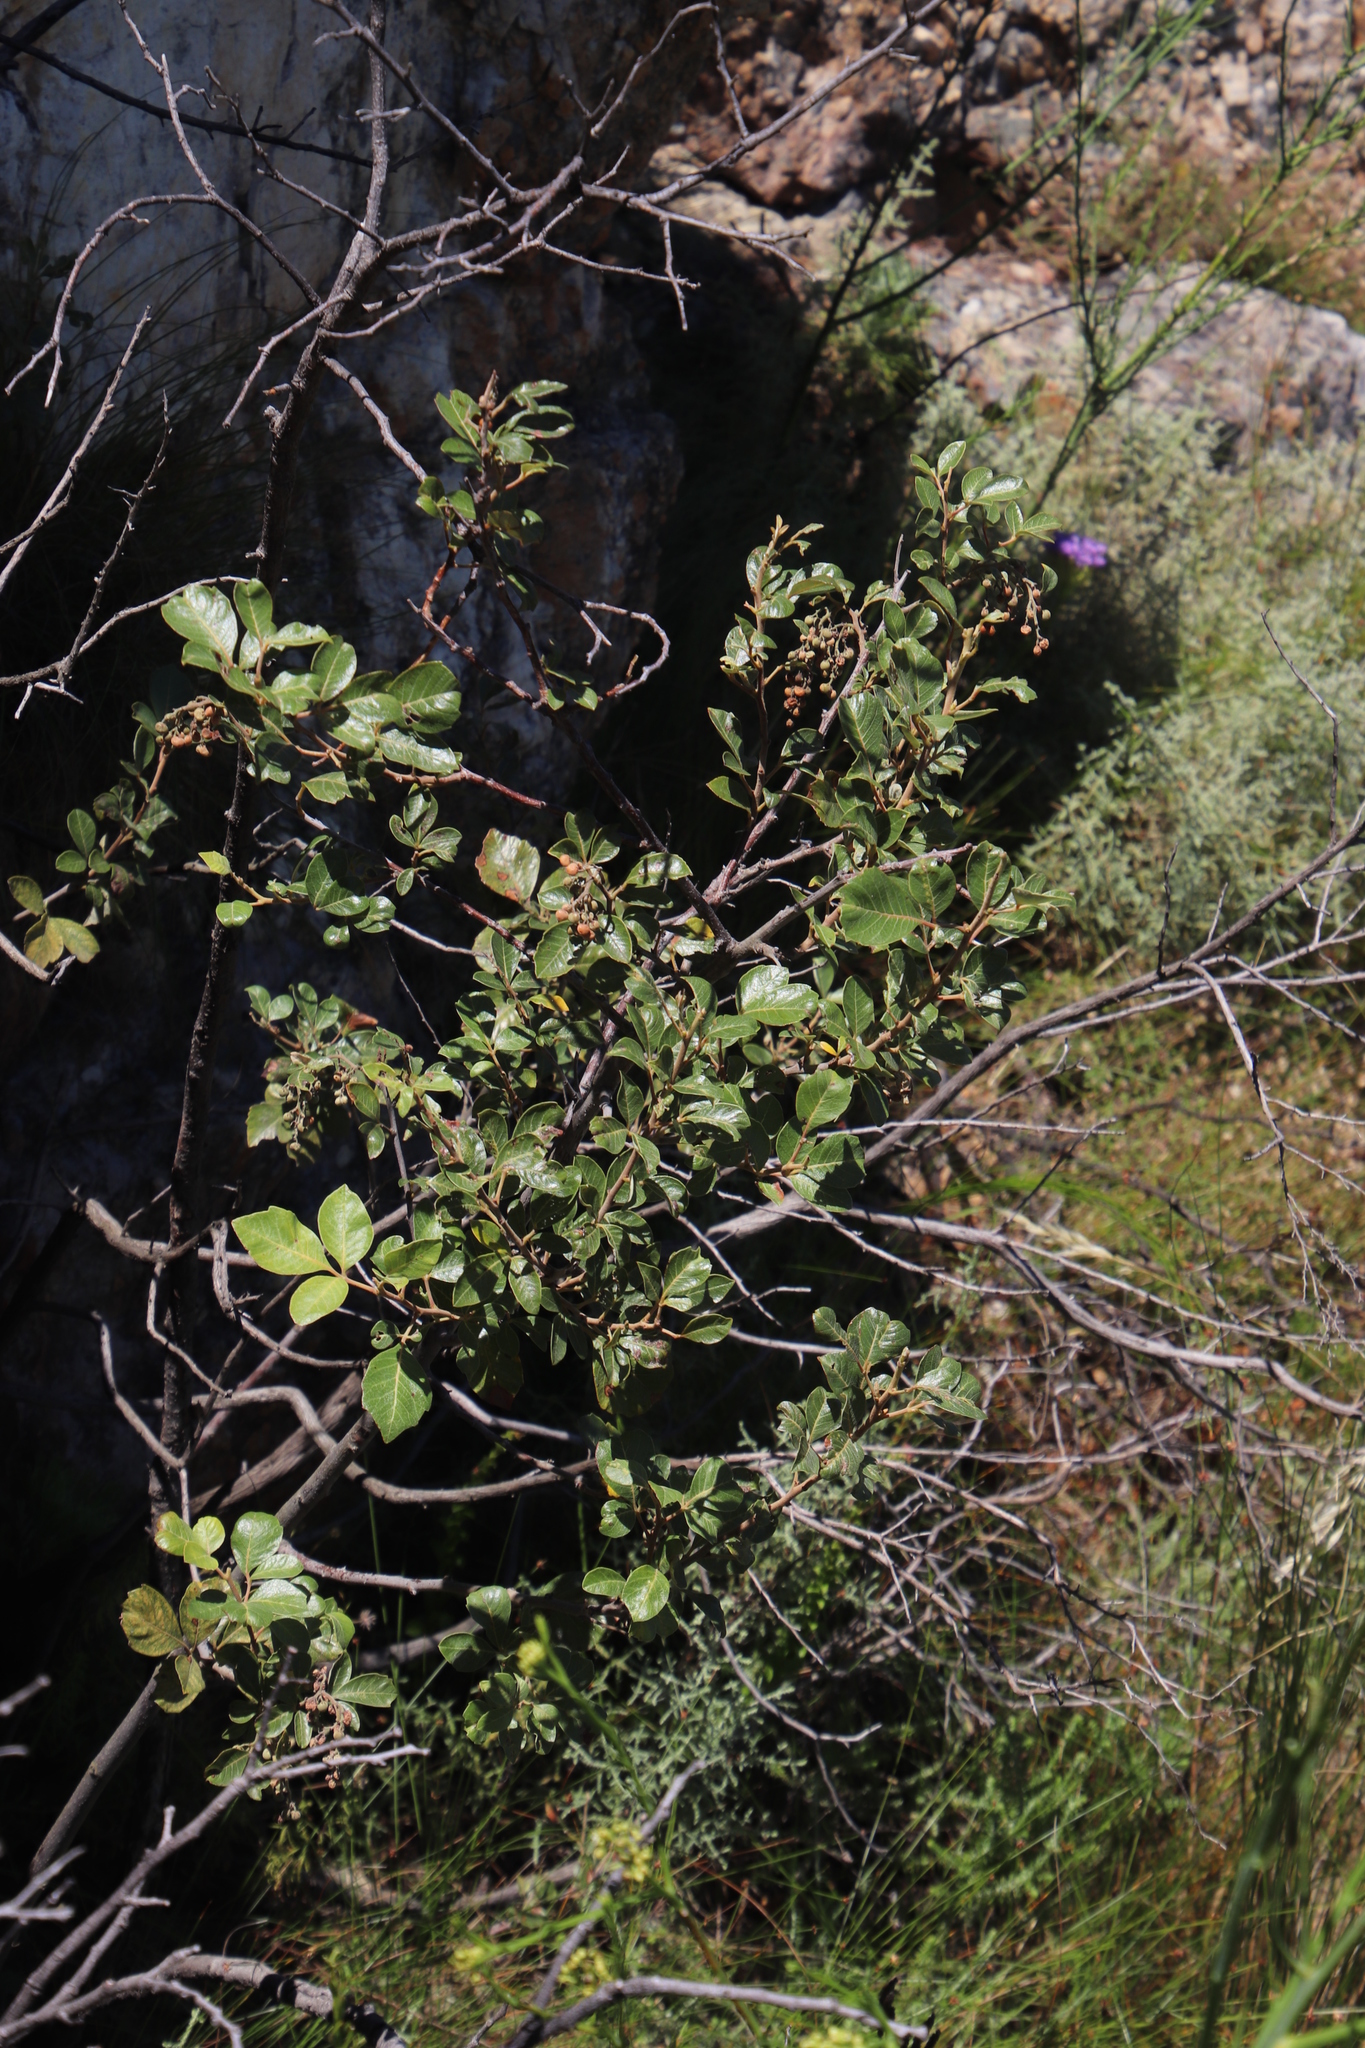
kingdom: Plantae
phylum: Tracheophyta
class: Magnoliopsida
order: Sapindales
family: Anacardiaceae
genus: Searsia
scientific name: Searsia tomentosa
